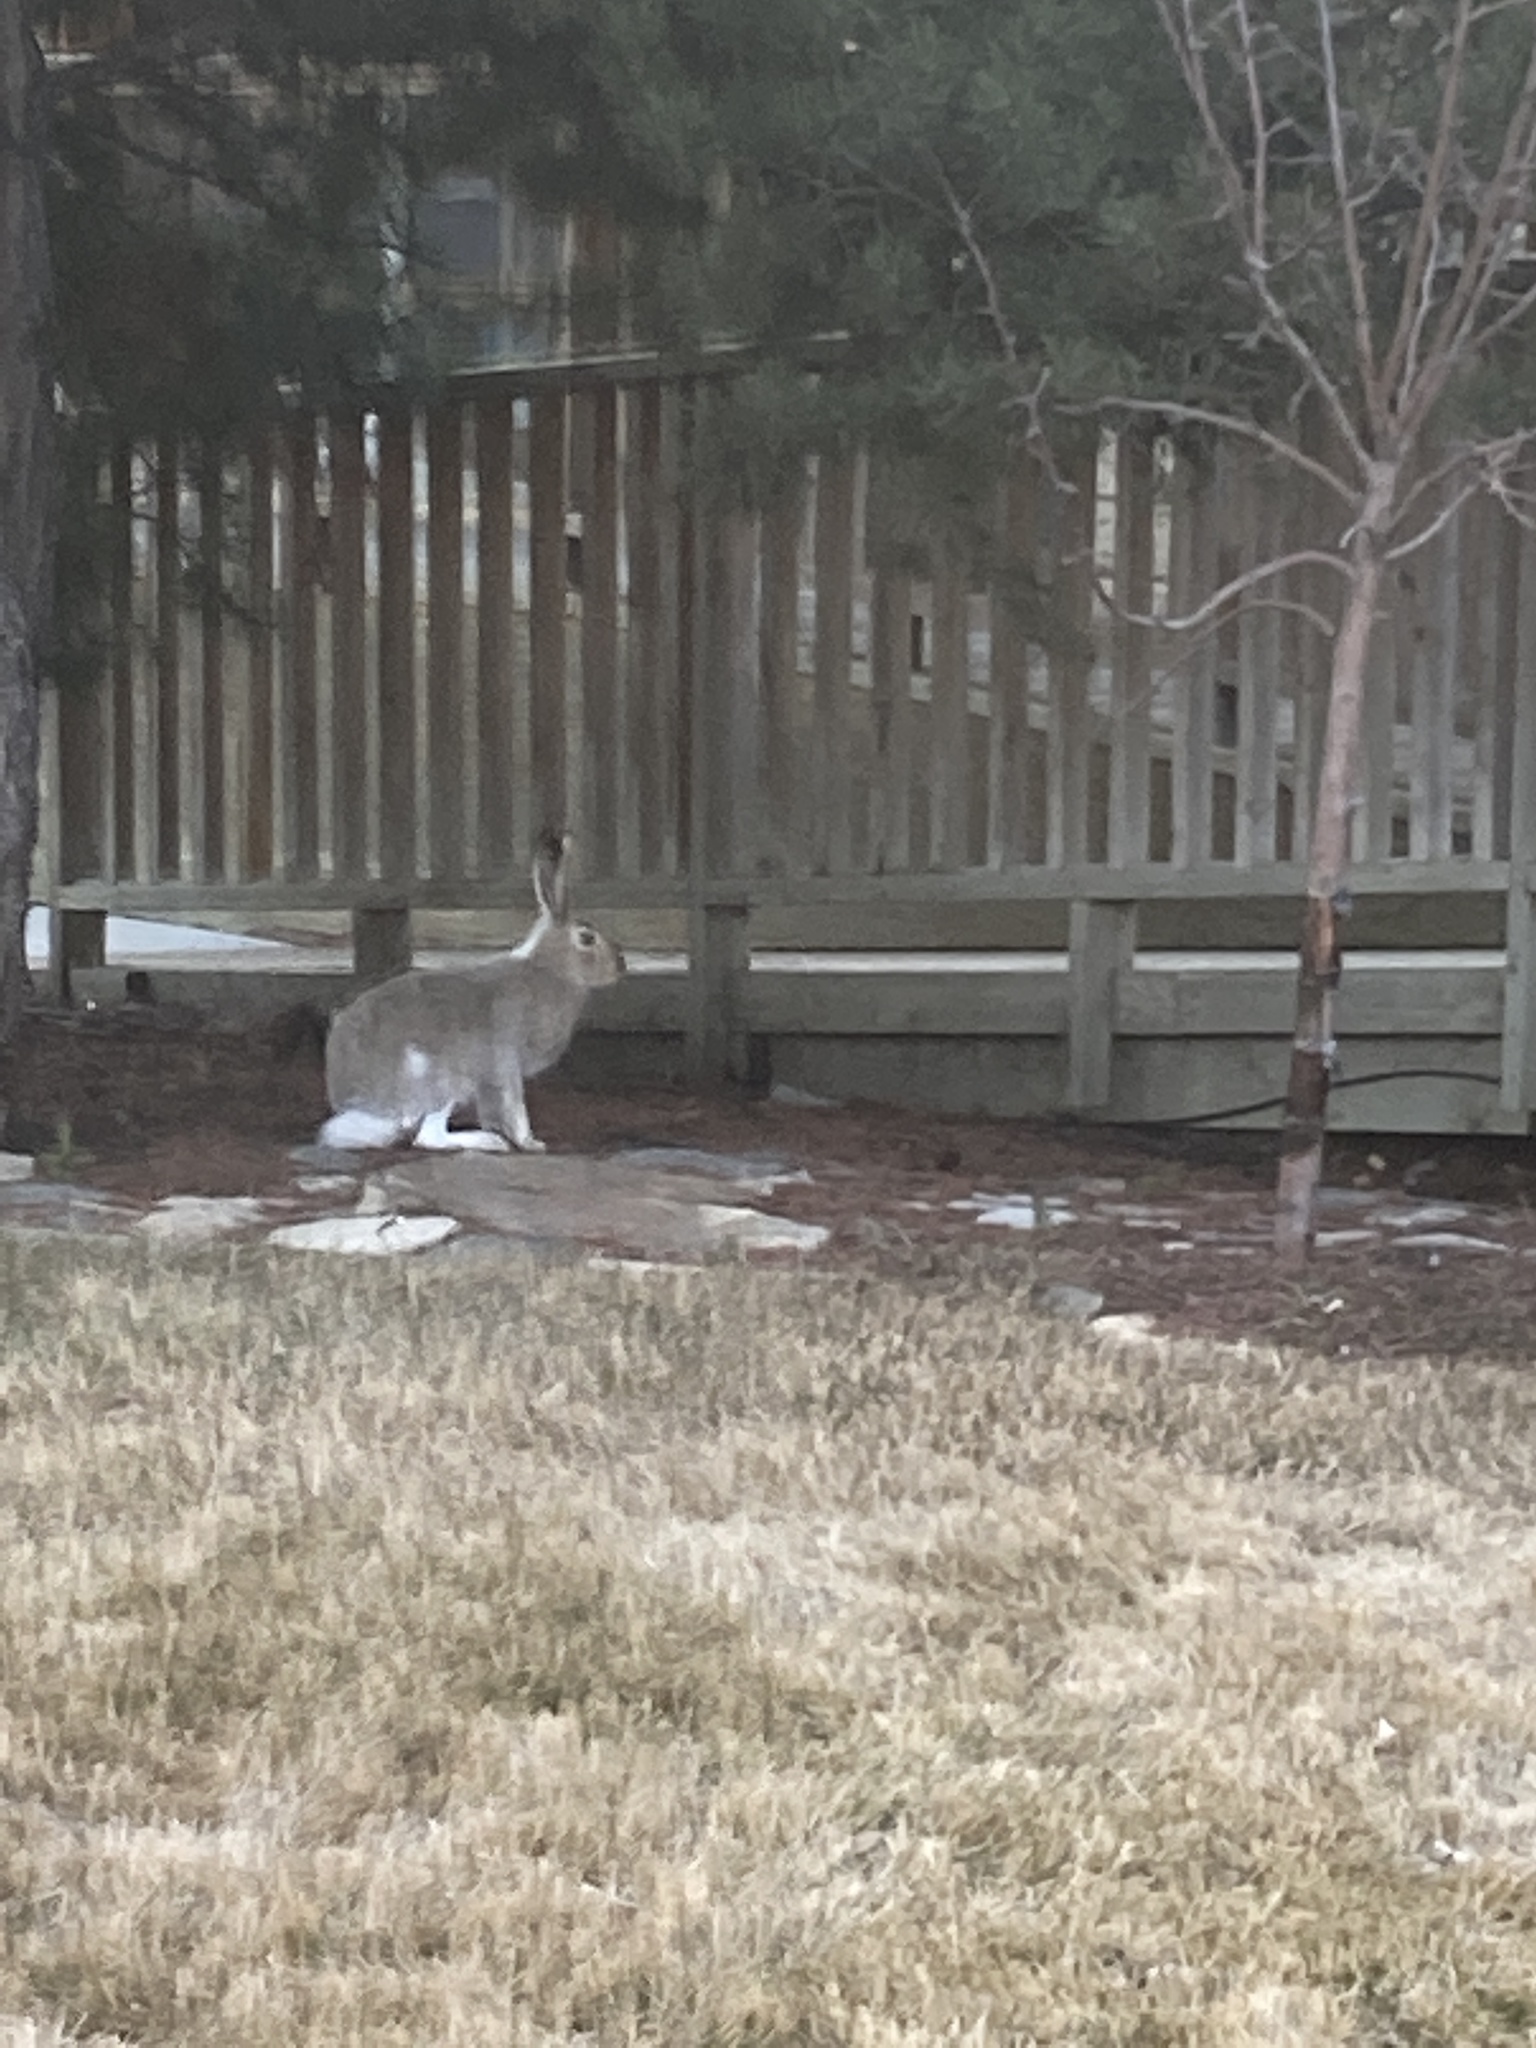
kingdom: Animalia
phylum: Chordata
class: Mammalia
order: Lagomorpha
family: Leporidae
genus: Lepus
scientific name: Lepus townsendii
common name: White-tailed jackrabbit
